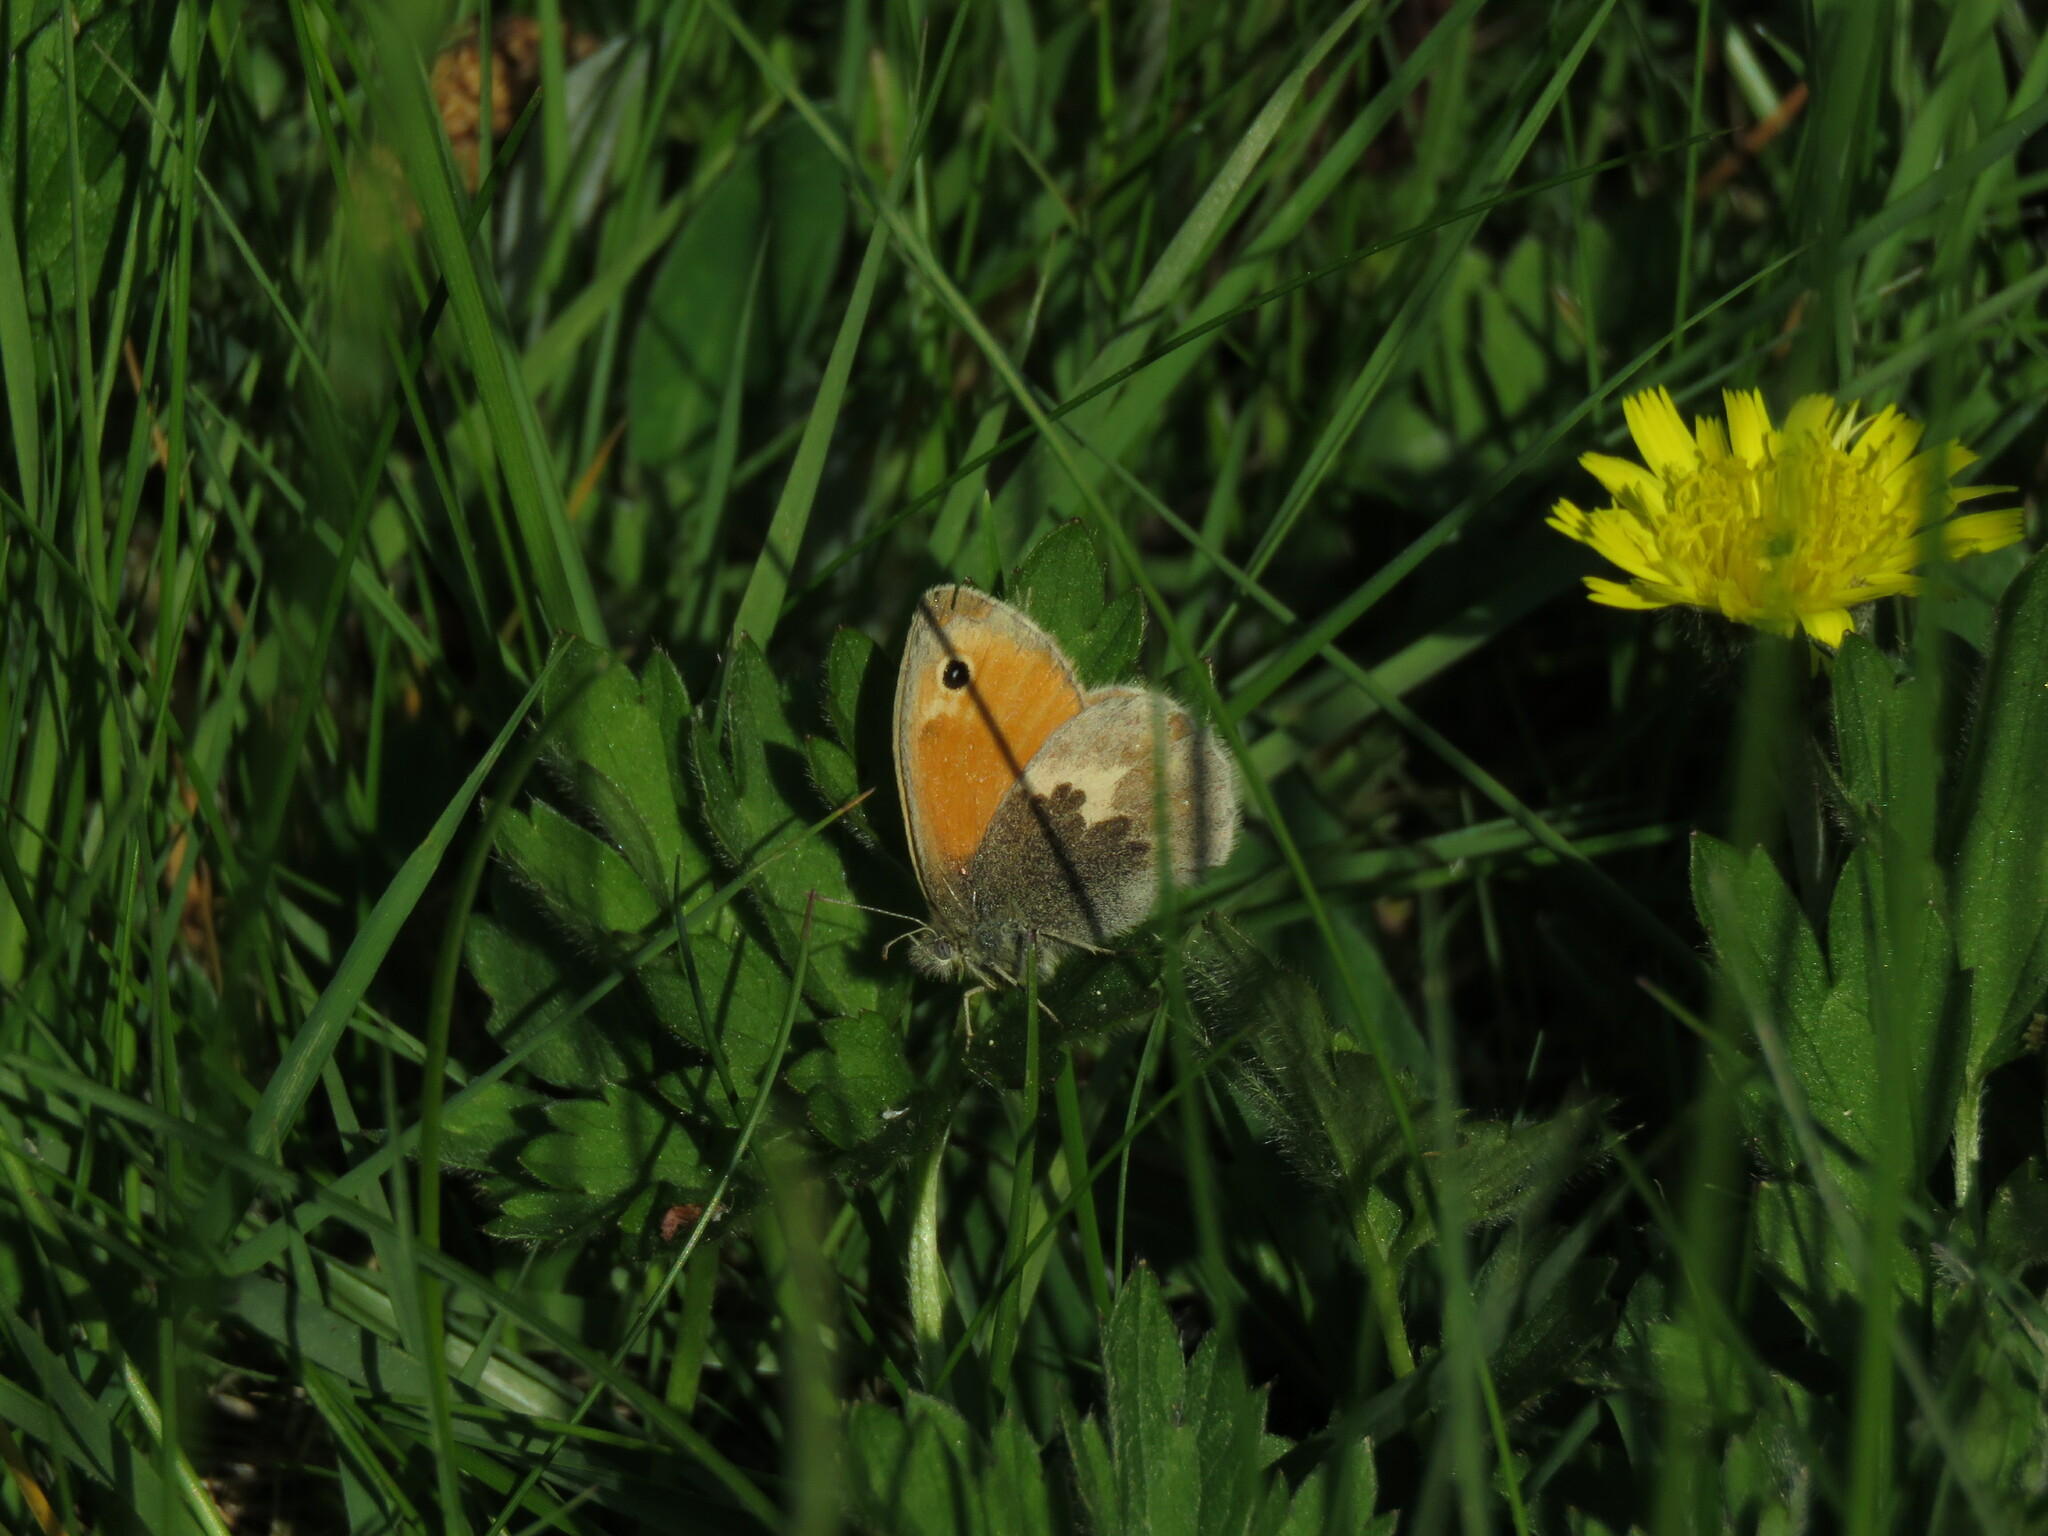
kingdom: Animalia
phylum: Arthropoda
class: Insecta
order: Lepidoptera
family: Nymphalidae
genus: Coenonympha
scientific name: Coenonympha pamphilus
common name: Small heath
